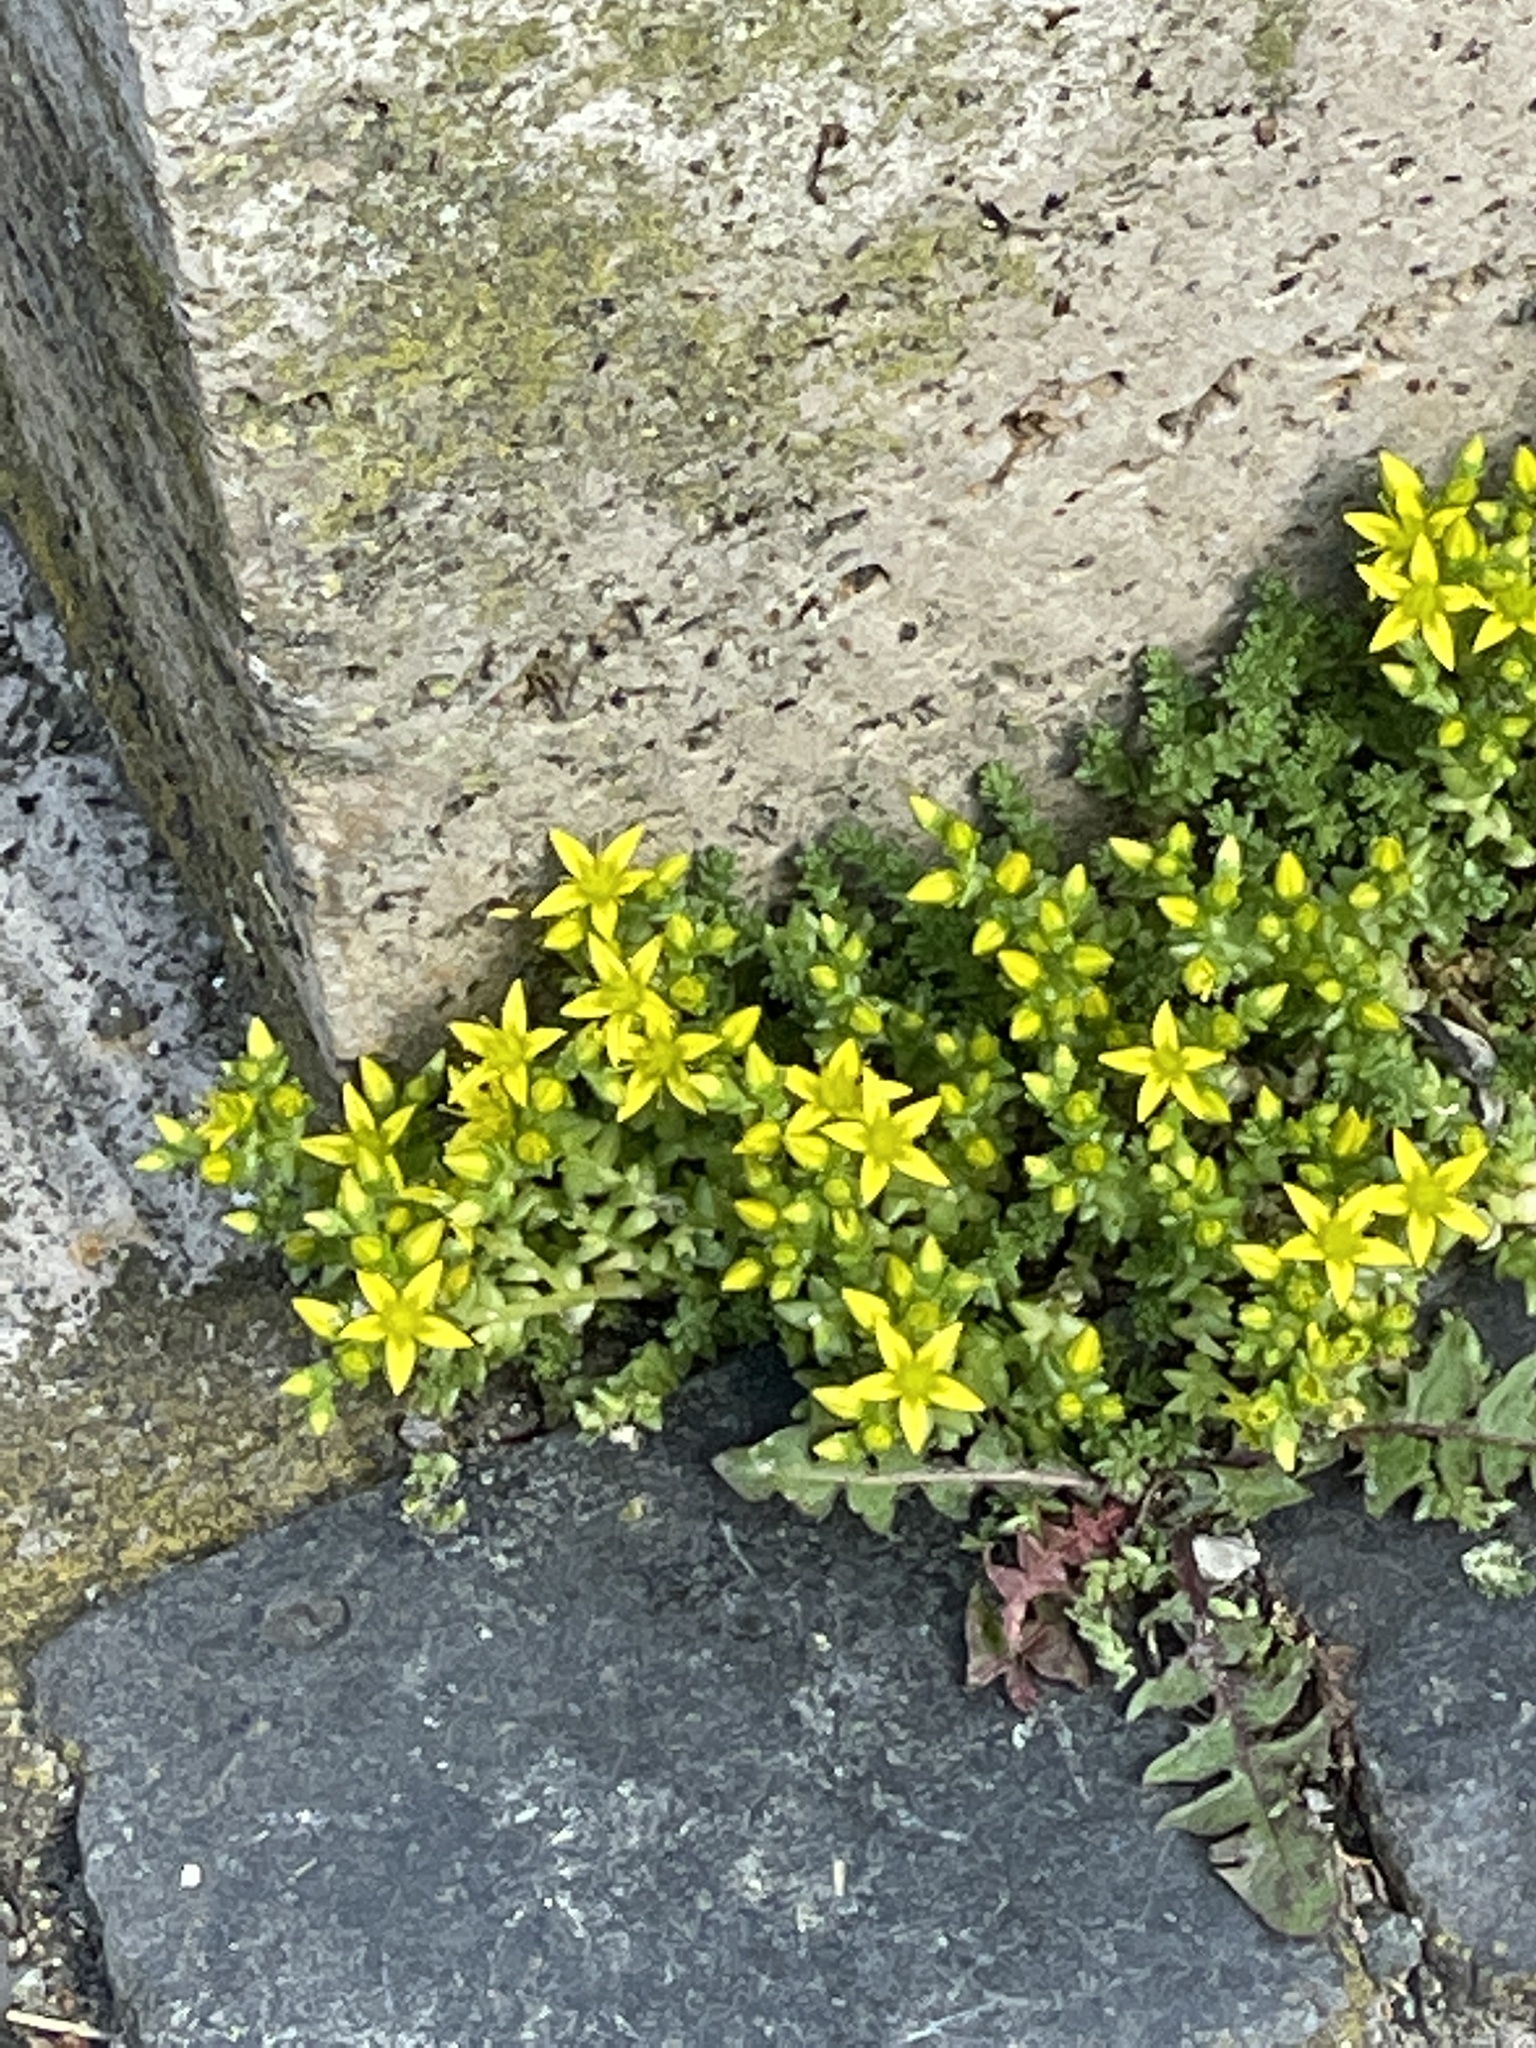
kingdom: Plantae
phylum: Tracheophyta
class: Magnoliopsida
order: Saxifragales
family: Crassulaceae
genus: Sedum
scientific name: Sedum acre
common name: Biting stonecrop
